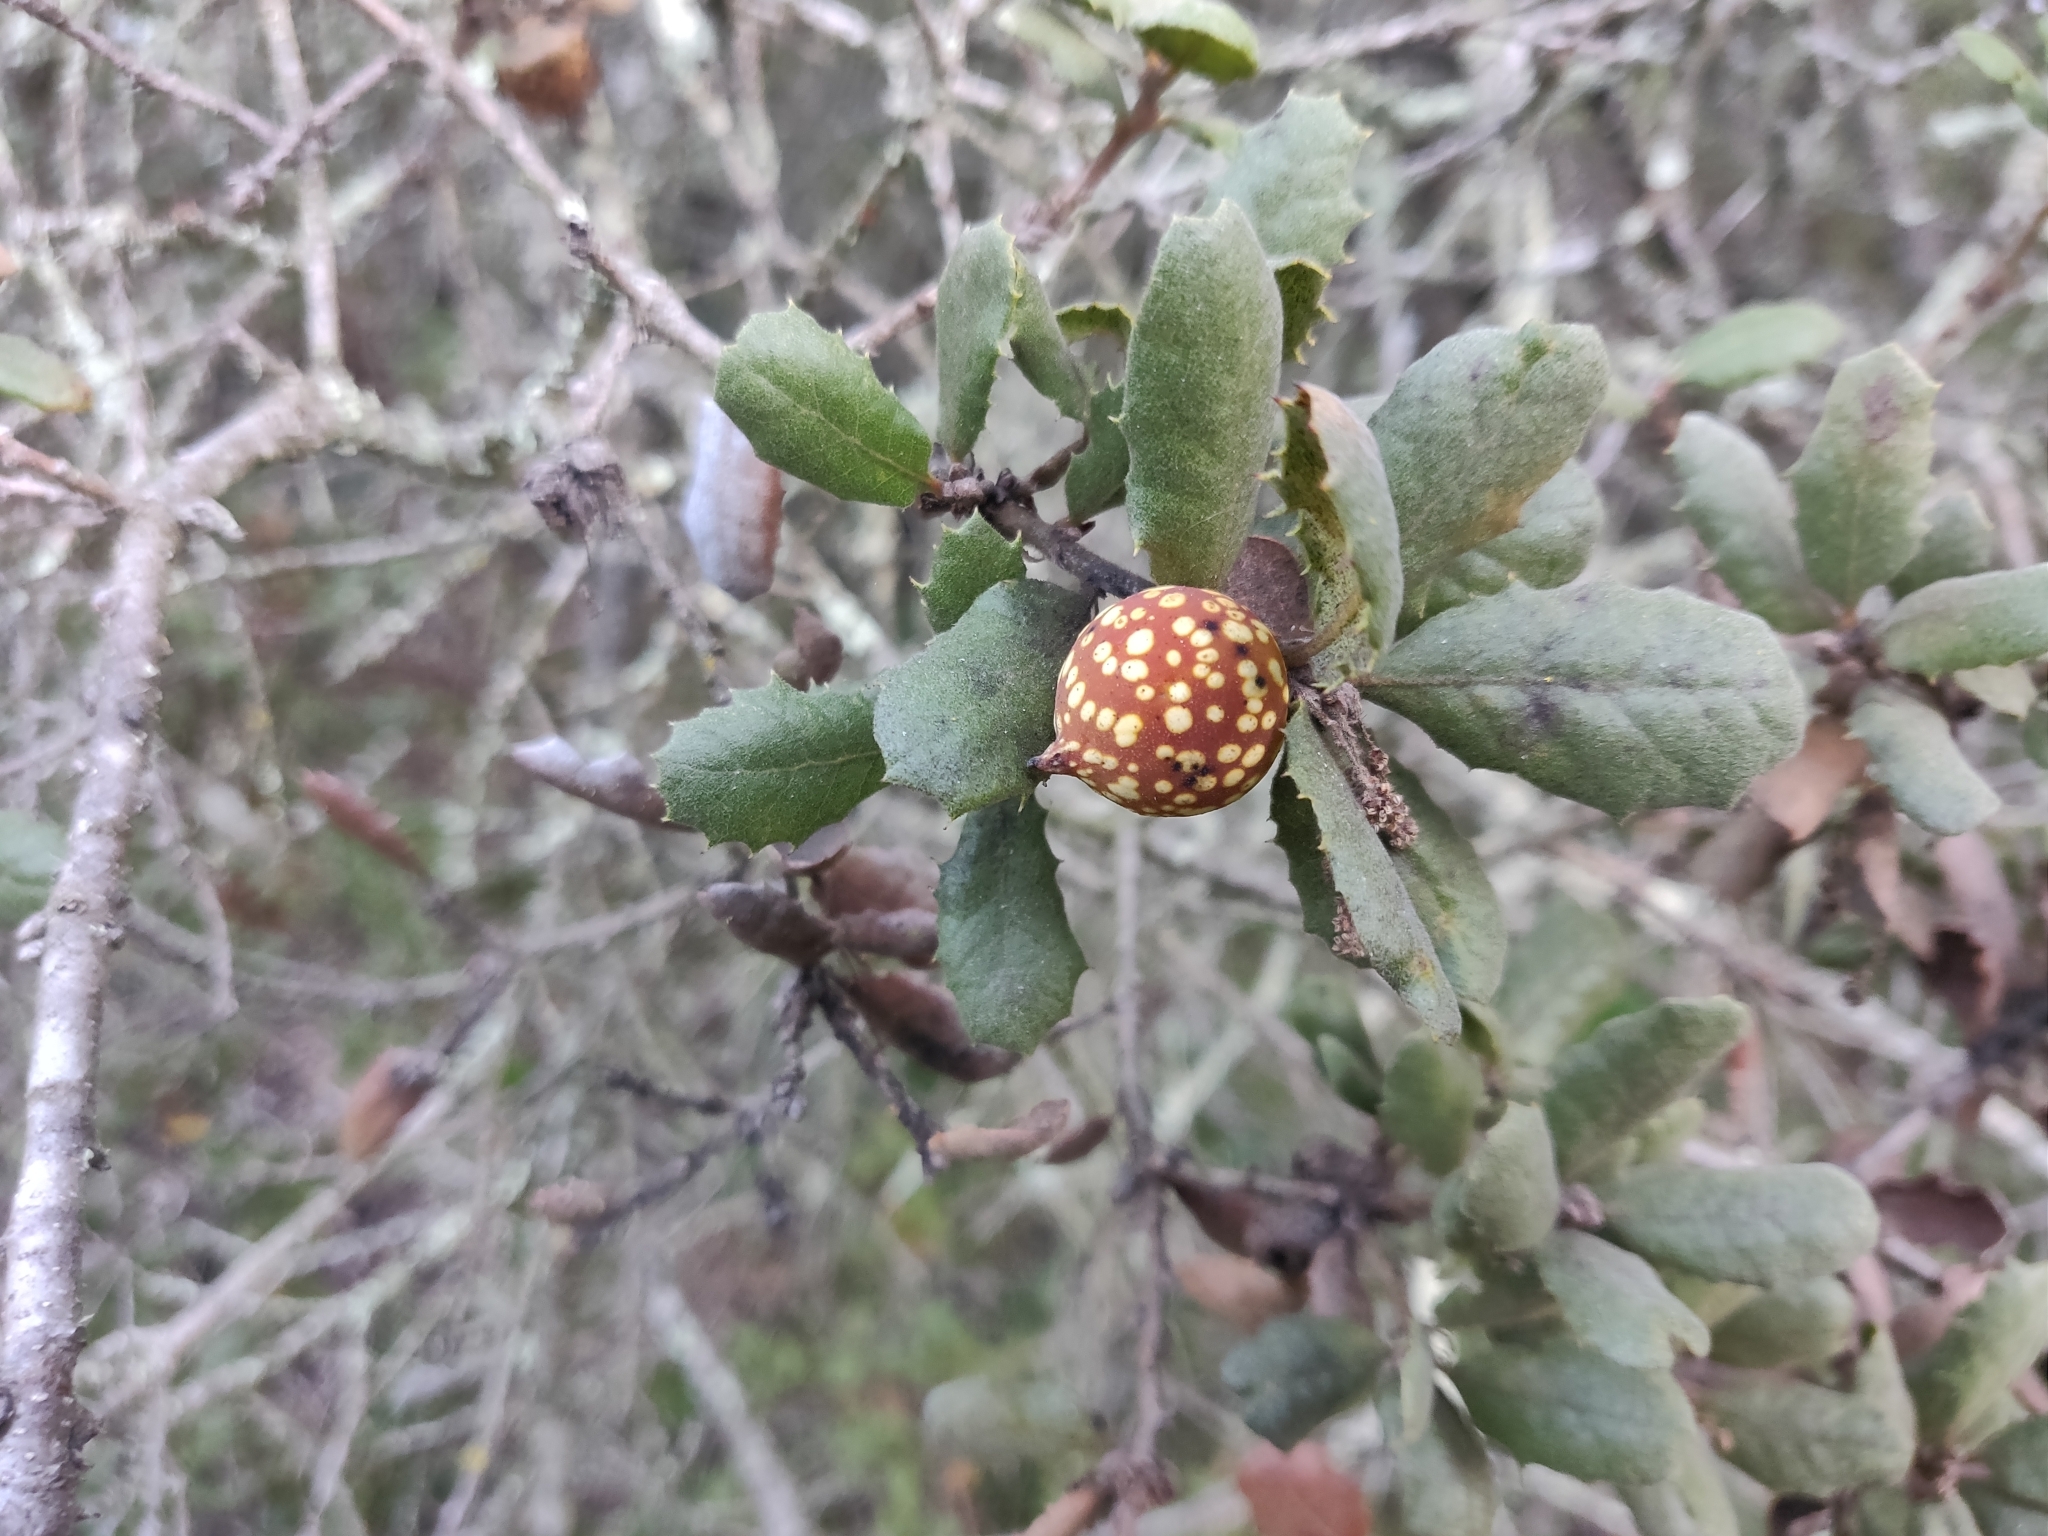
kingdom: Animalia
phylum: Arthropoda
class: Insecta
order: Hymenoptera
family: Cynipidae
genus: Burnettweldia
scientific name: Burnettweldia
